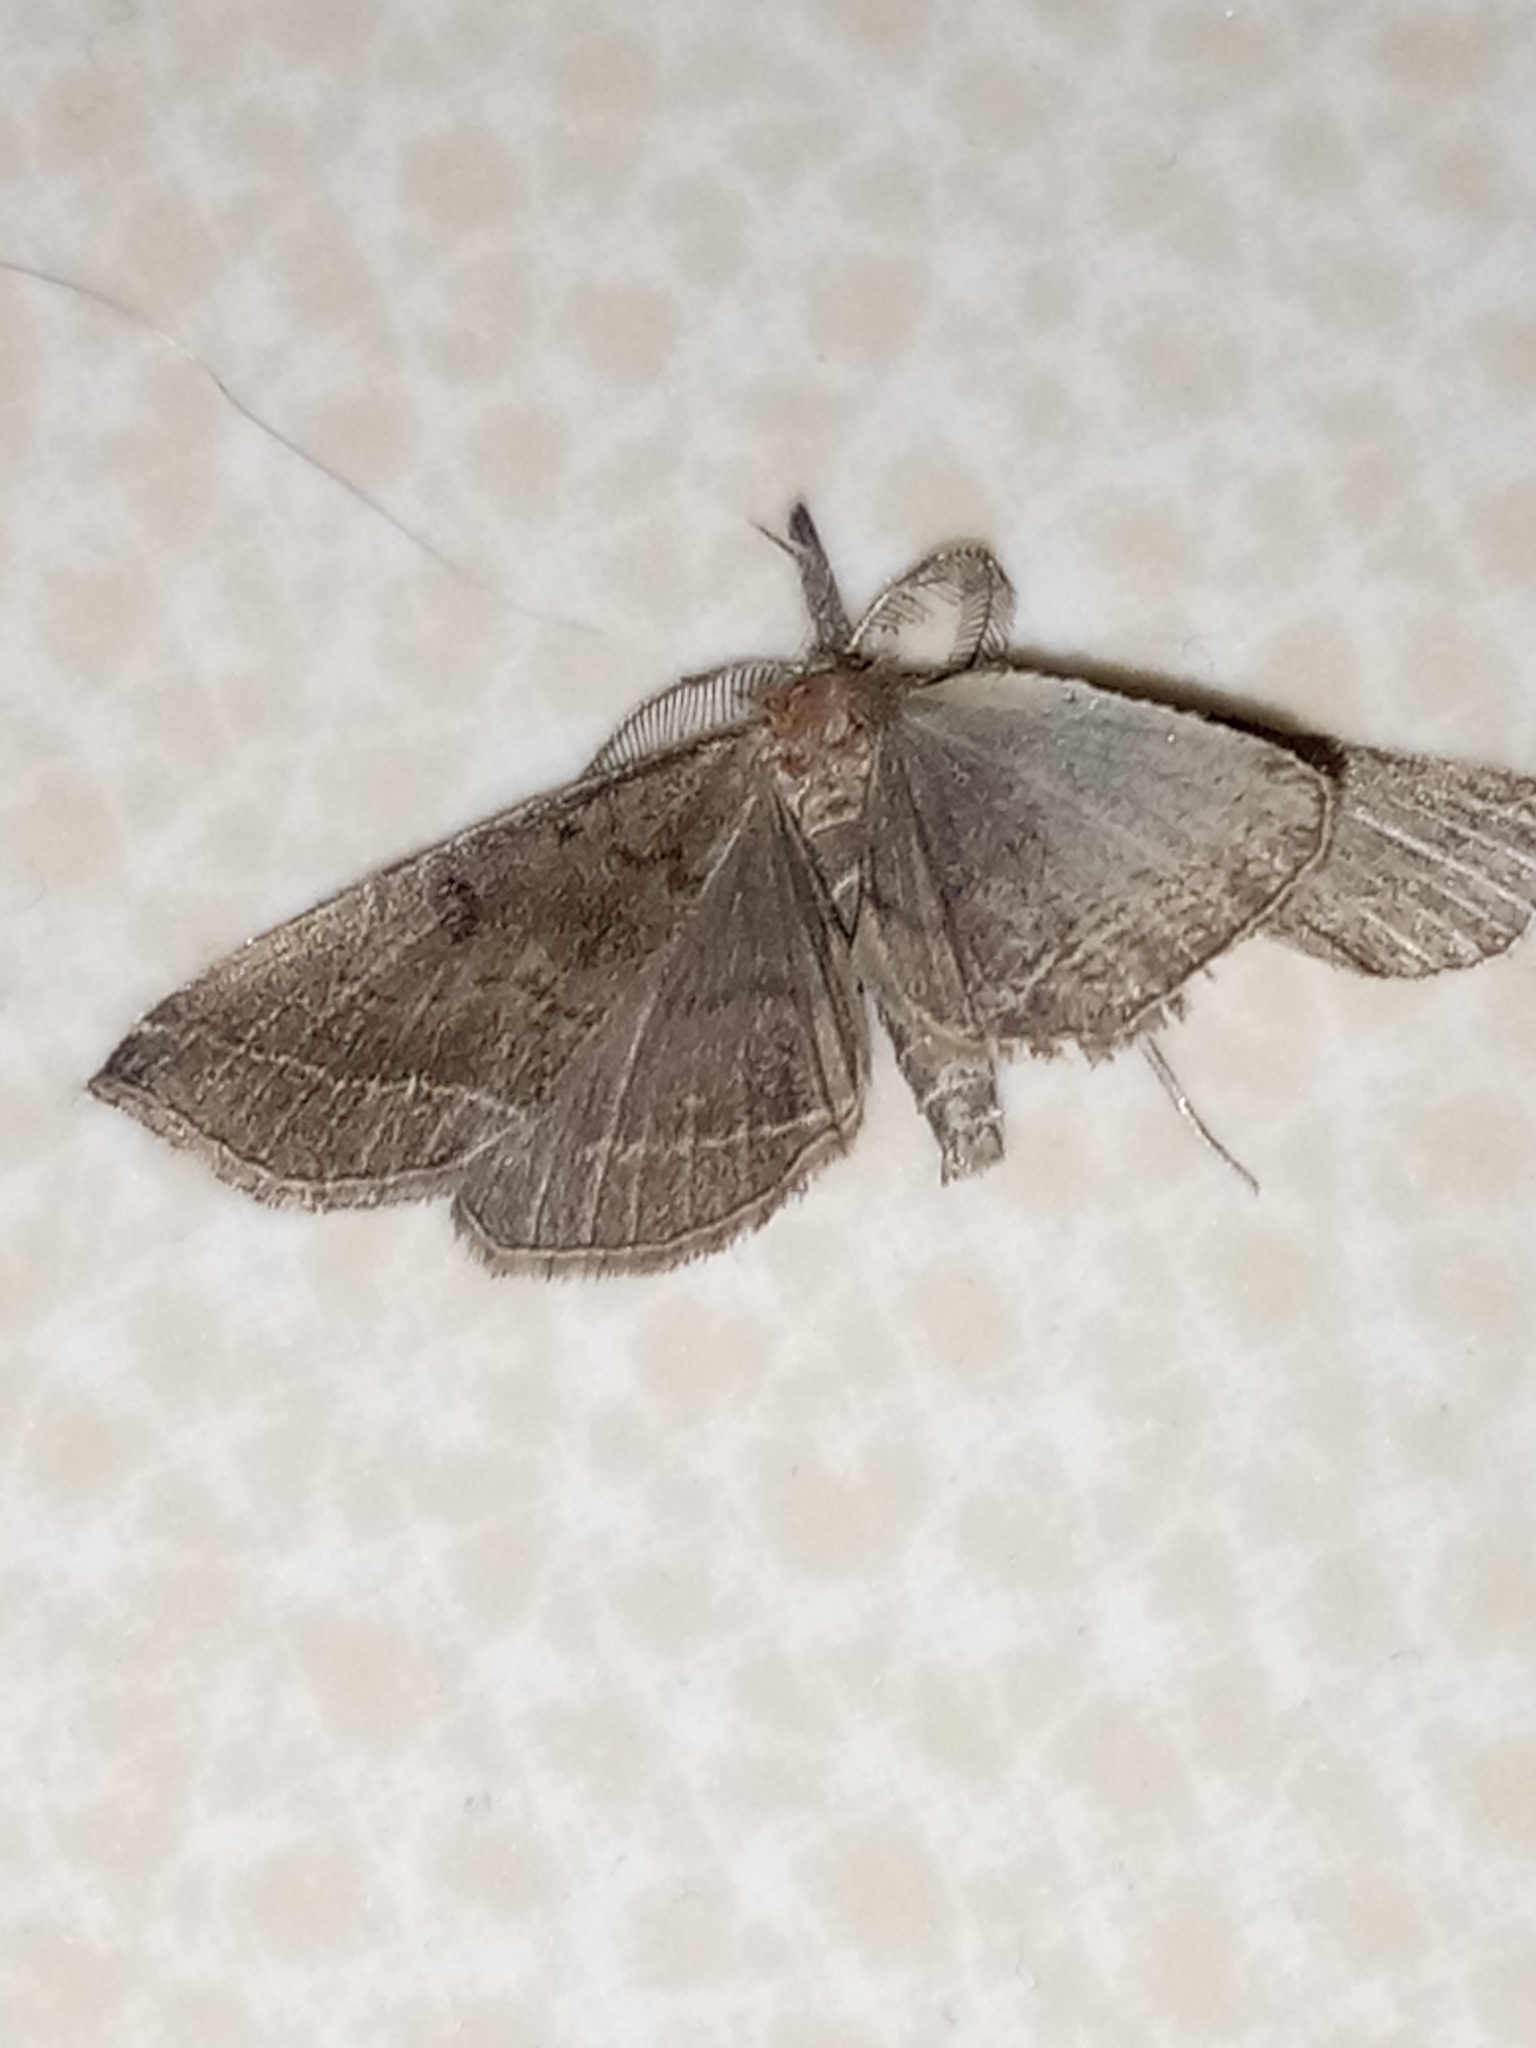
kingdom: Animalia
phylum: Arthropoda
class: Insecta
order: Lepidoptera
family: Erebidae
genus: Pechipogo
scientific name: Pechipogo plumigeralis
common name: Plumed fan-foot
